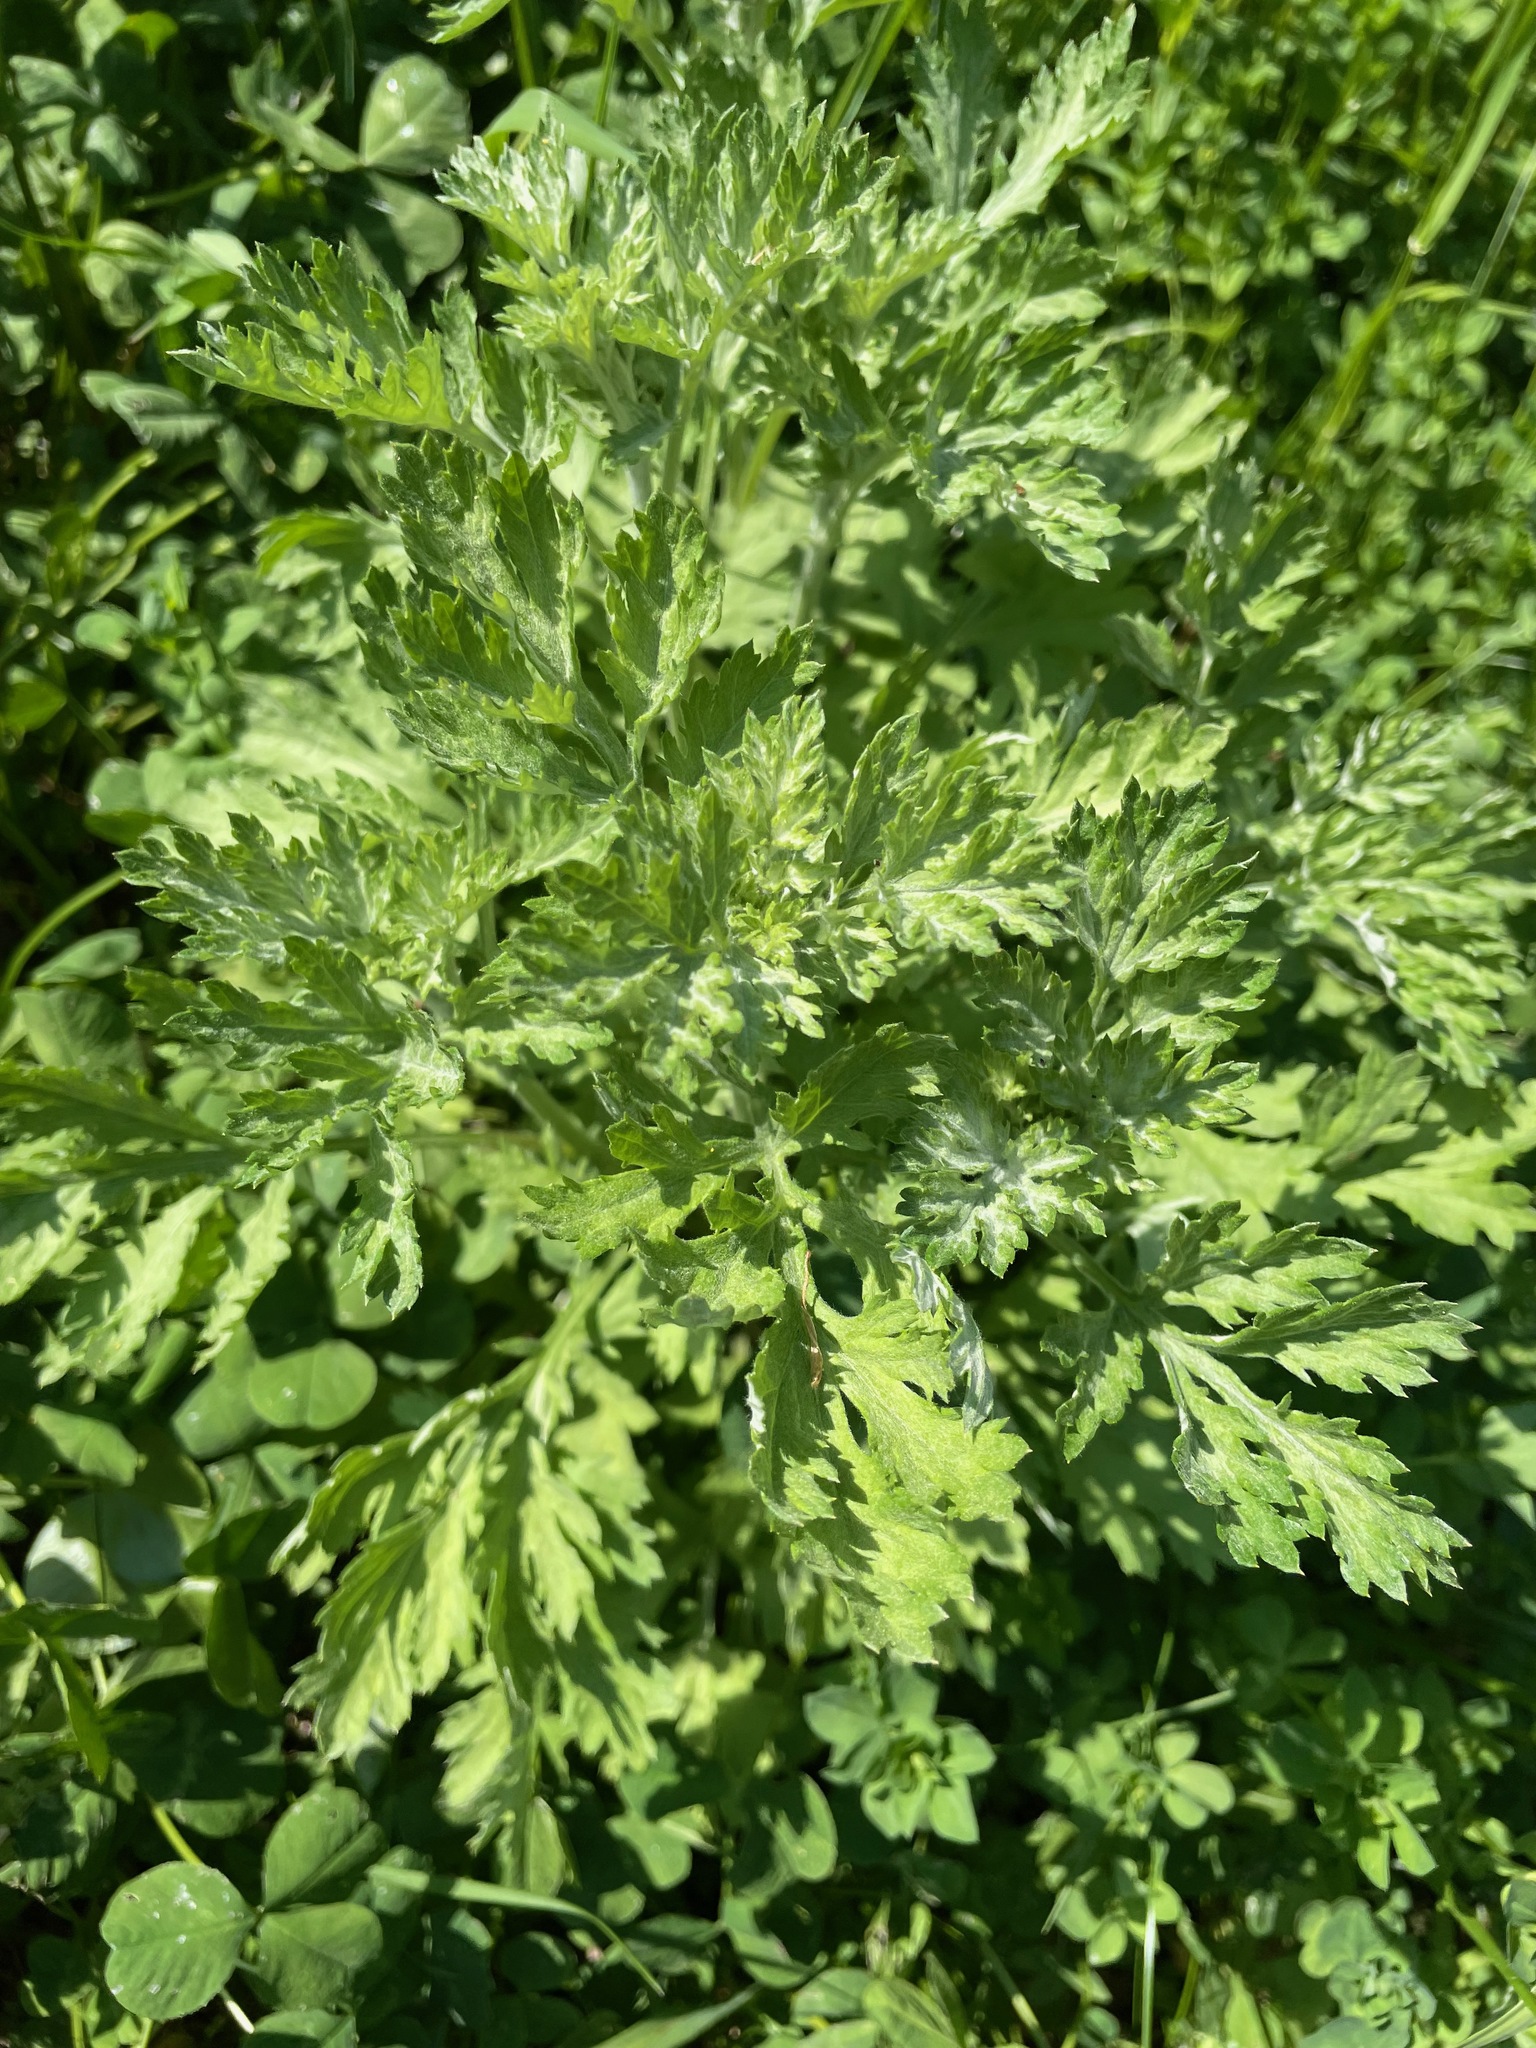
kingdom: Plantae
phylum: Tracheophyta
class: Magnoliopsida
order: Asterales
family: Asteraceae
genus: Artemisia
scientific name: Artemisia vulgaris
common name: Mugwort
